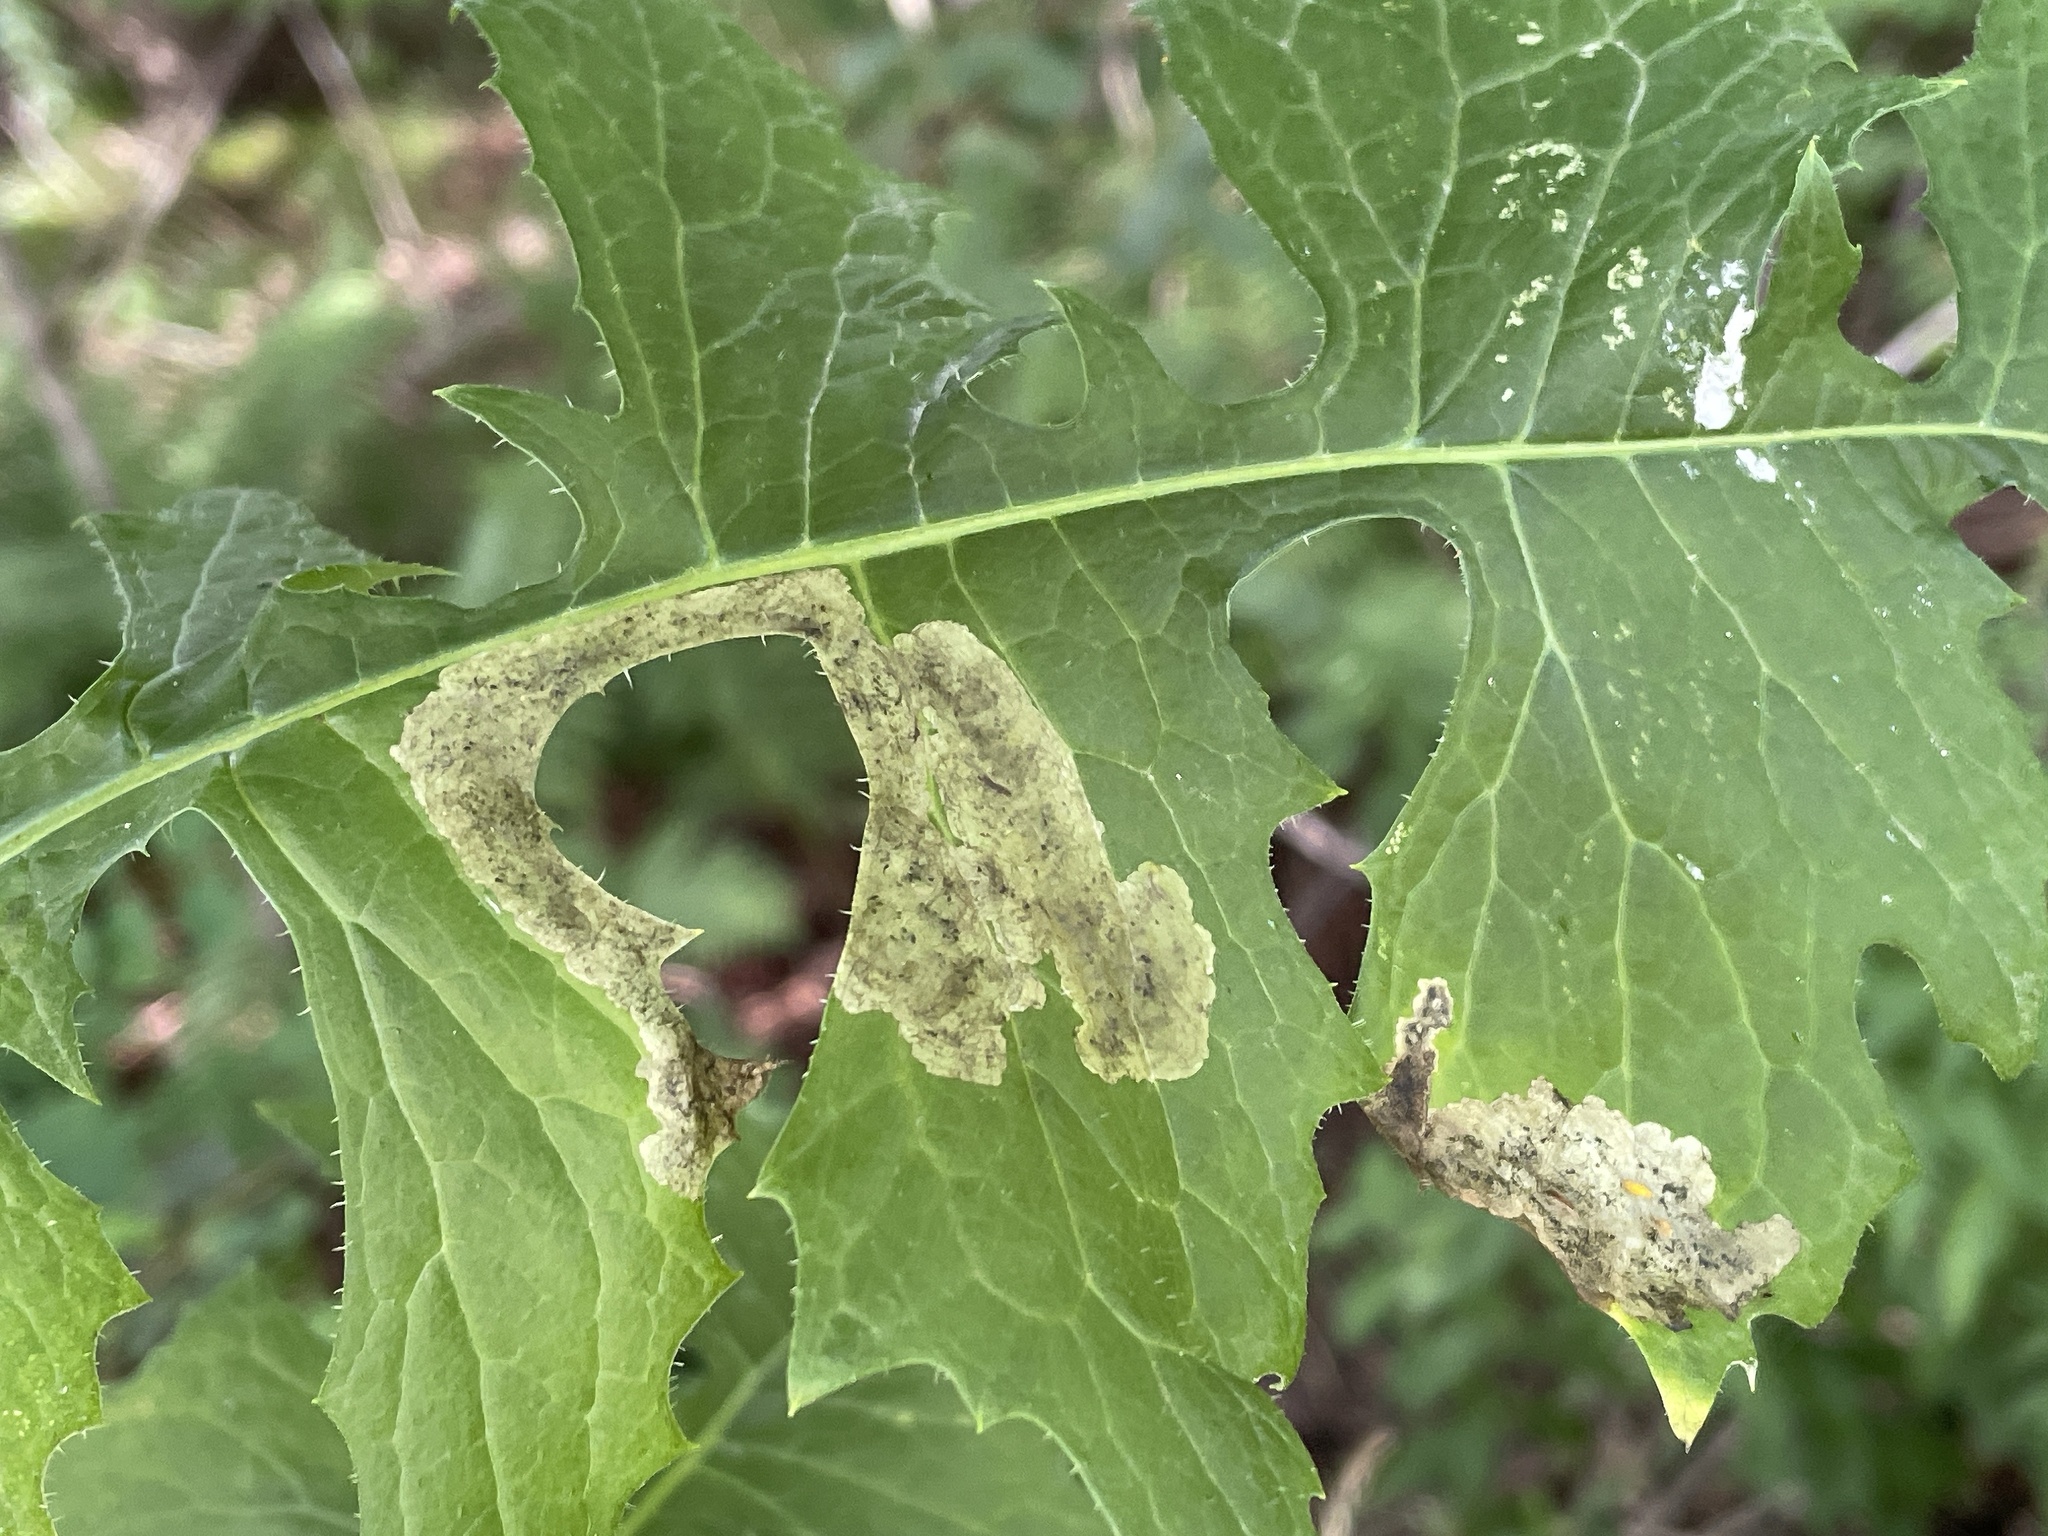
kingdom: Animalia
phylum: Arthropoda
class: Insecta
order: Diptera
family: Agromyzidae
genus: Liriomyza
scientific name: Liriomyza taraxaci
